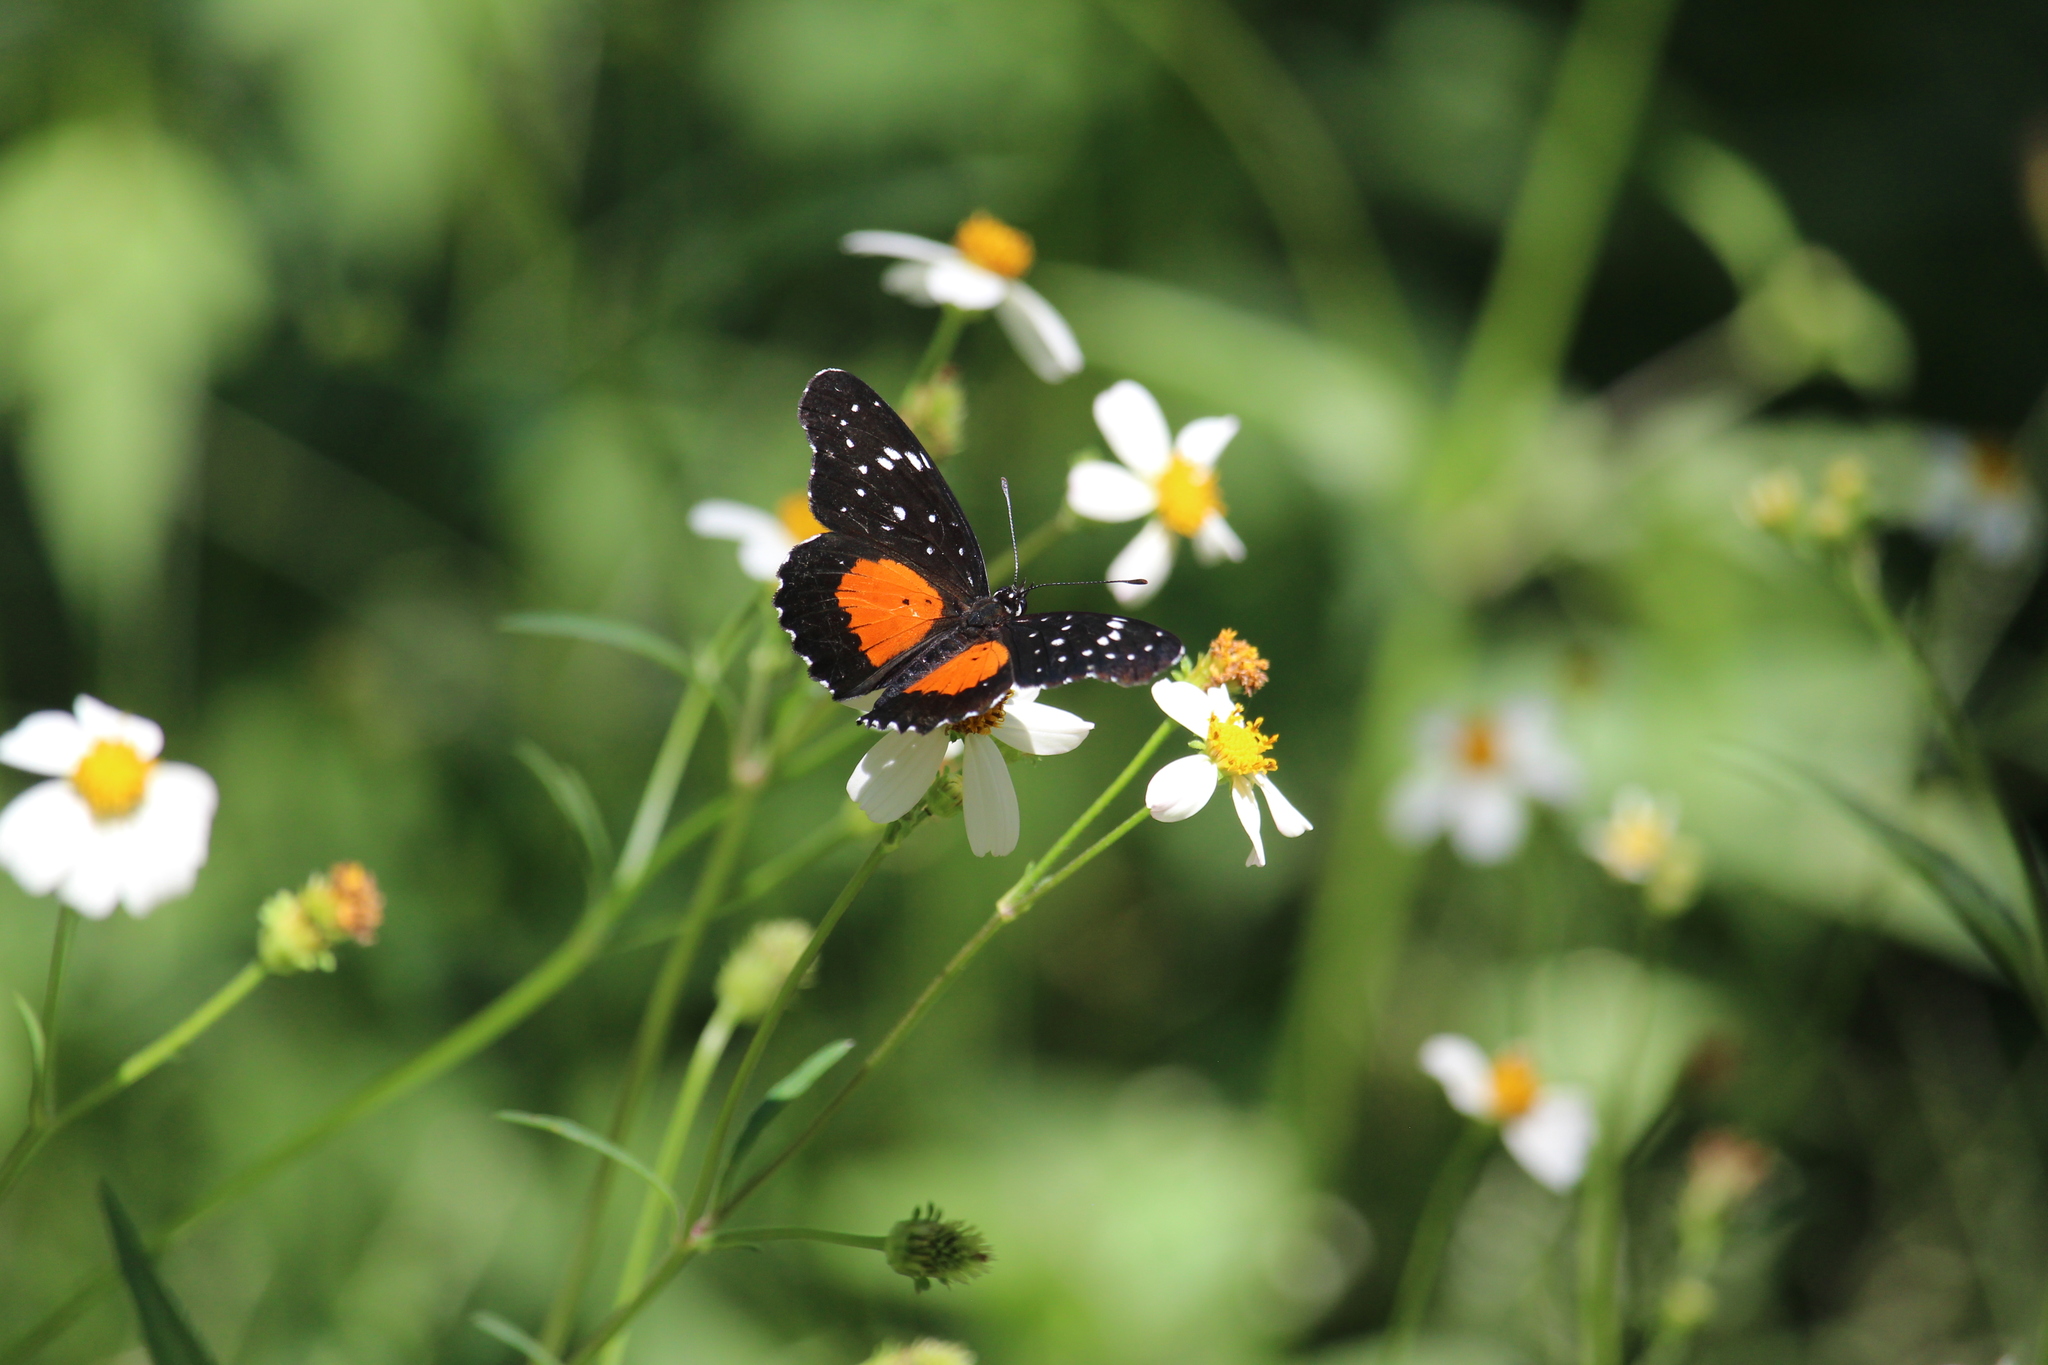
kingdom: Animalia
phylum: Arthropoda
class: Insecta
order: Lepidoptera
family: Nymphalidae
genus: Chlosyne
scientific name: Chlosyne janais
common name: Crimson patch
